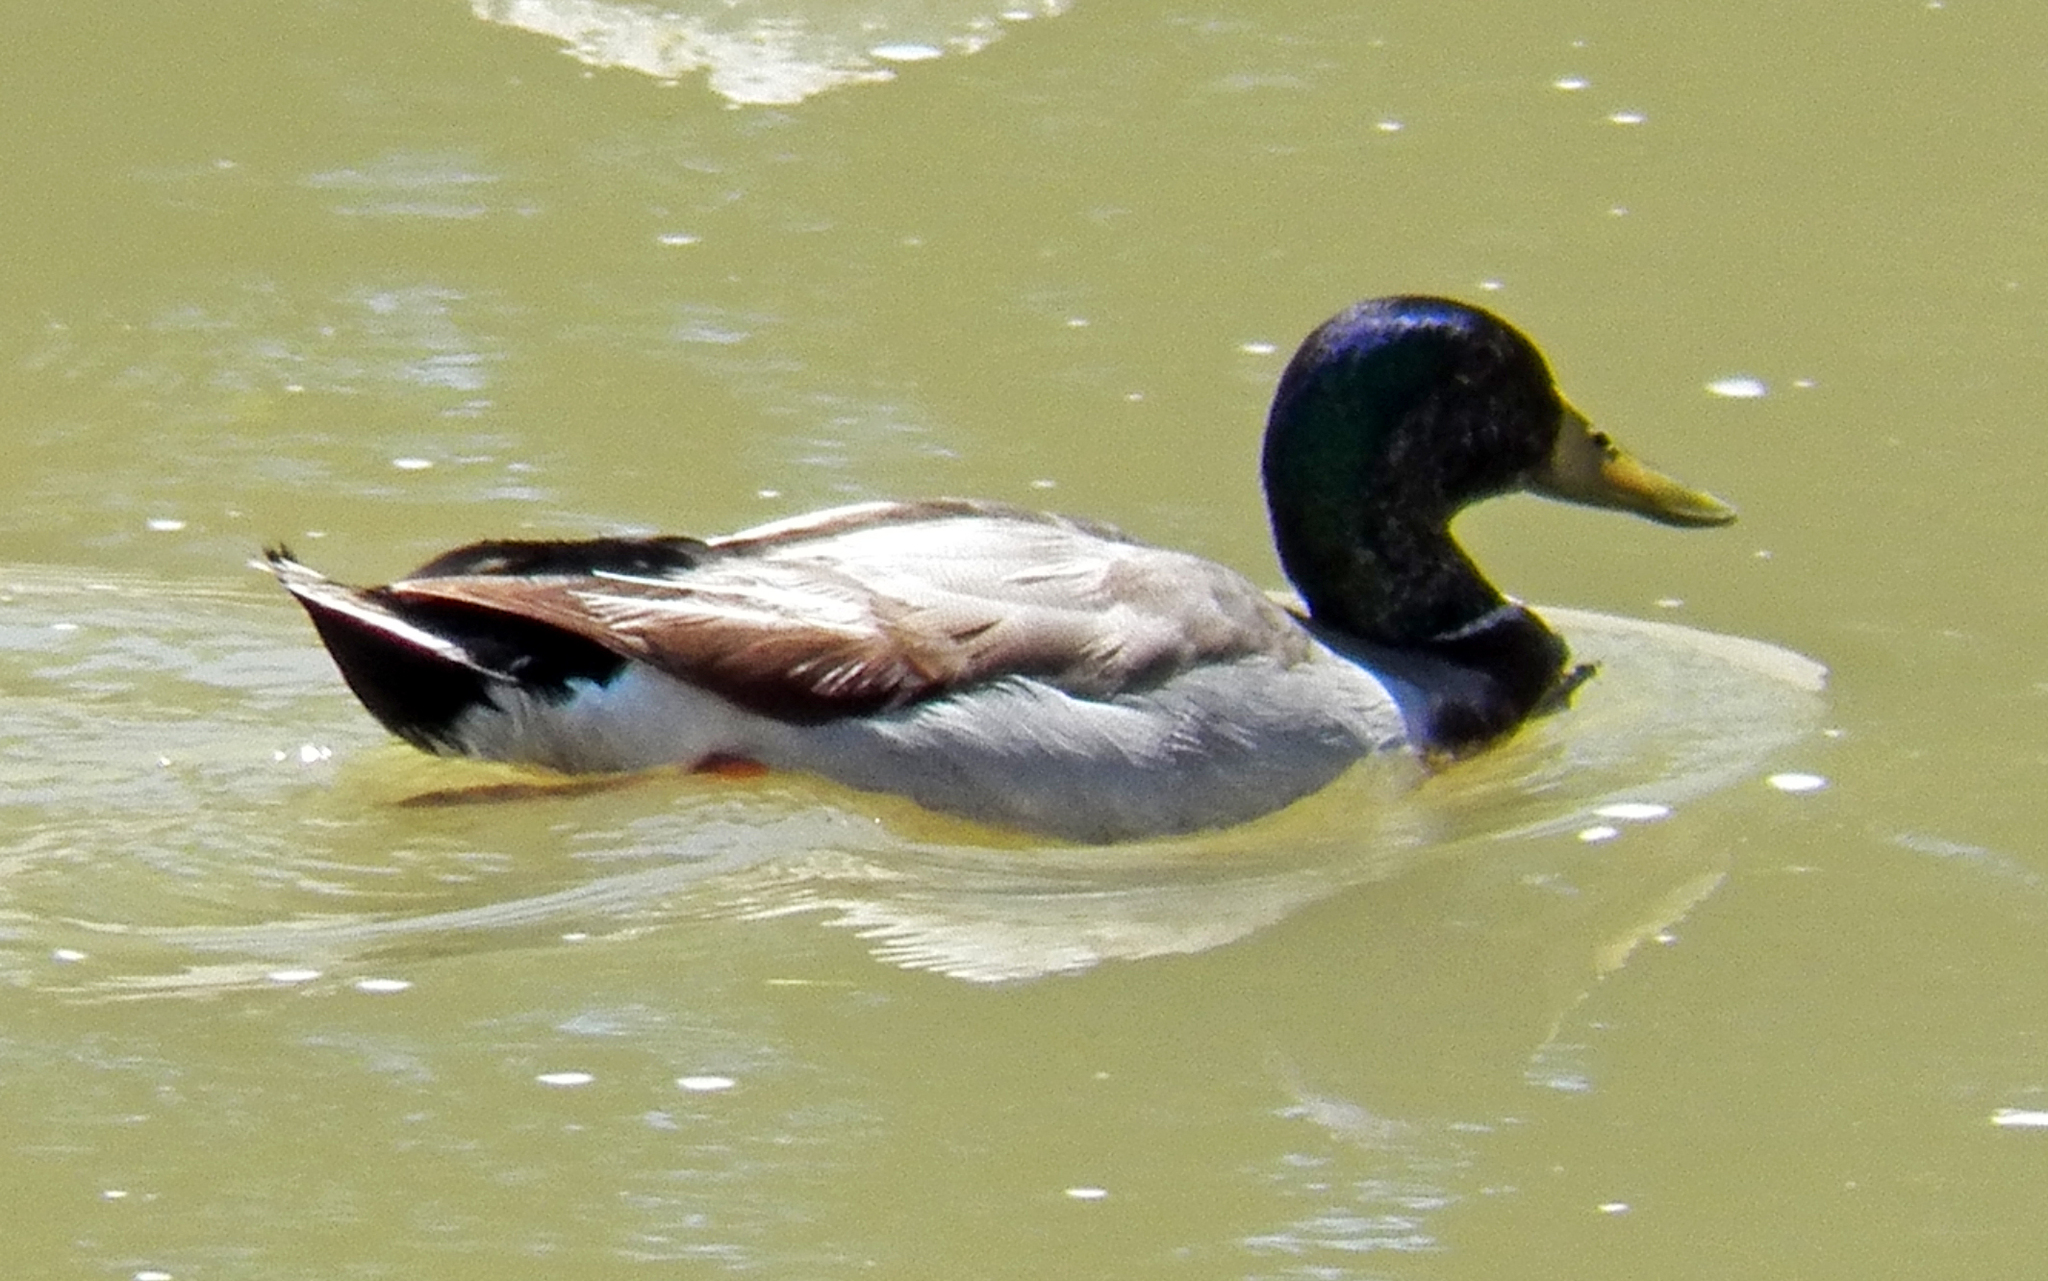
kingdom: Animalia
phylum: Chordata
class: Aves
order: Anseriformes
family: Anatidae
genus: Anas
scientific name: Anas platyrhynchos
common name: Mallard
